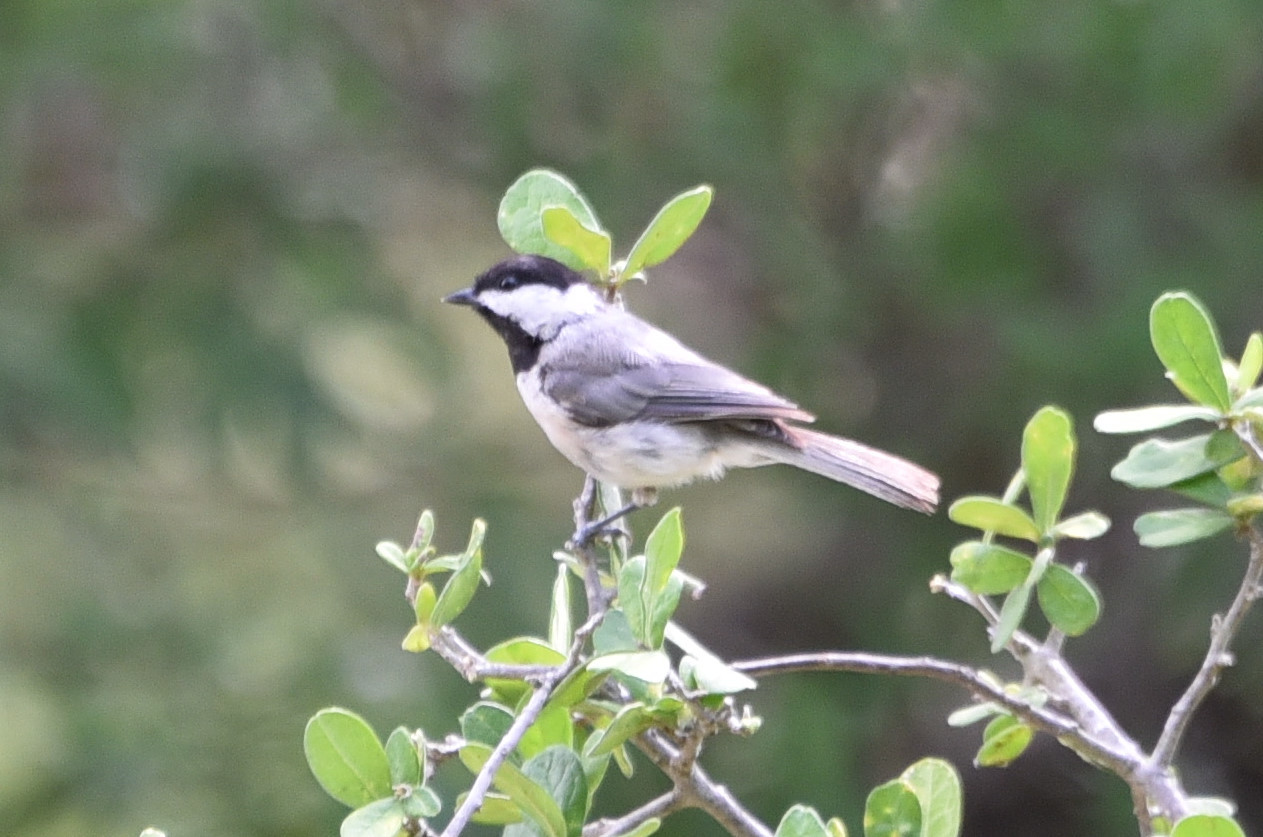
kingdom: Animalia
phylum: Chordata
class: Aves
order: Passeriformes
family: Paridae
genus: Poecile
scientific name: Poecile carolinensis
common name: Carolina chickadee
